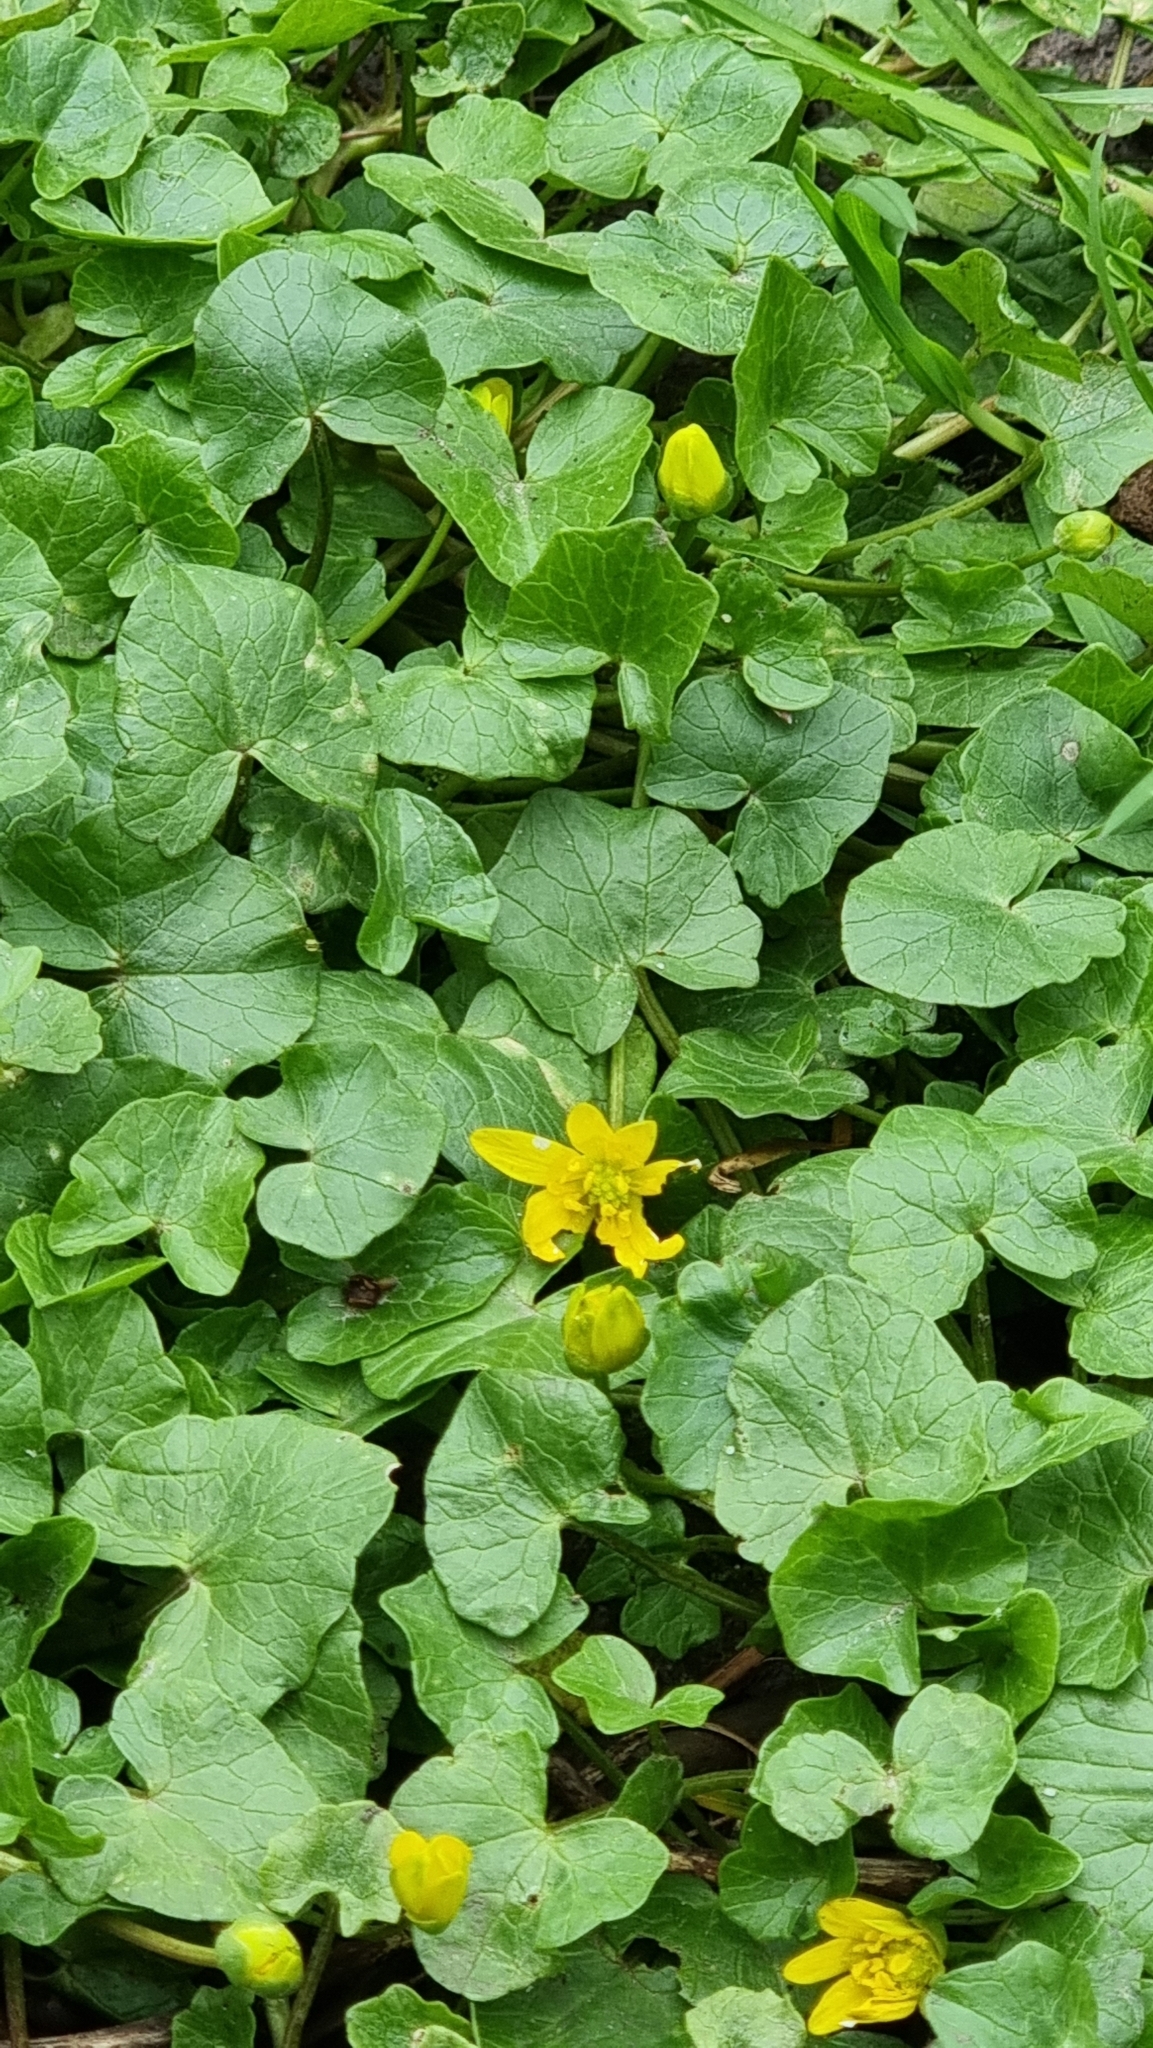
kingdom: Plantae
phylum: Tracheophyta
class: Magnoliopsida
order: Ranunculales
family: Ranunculaceae
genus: Ficaria
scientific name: Ficaria verna
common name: Lesser celandine
